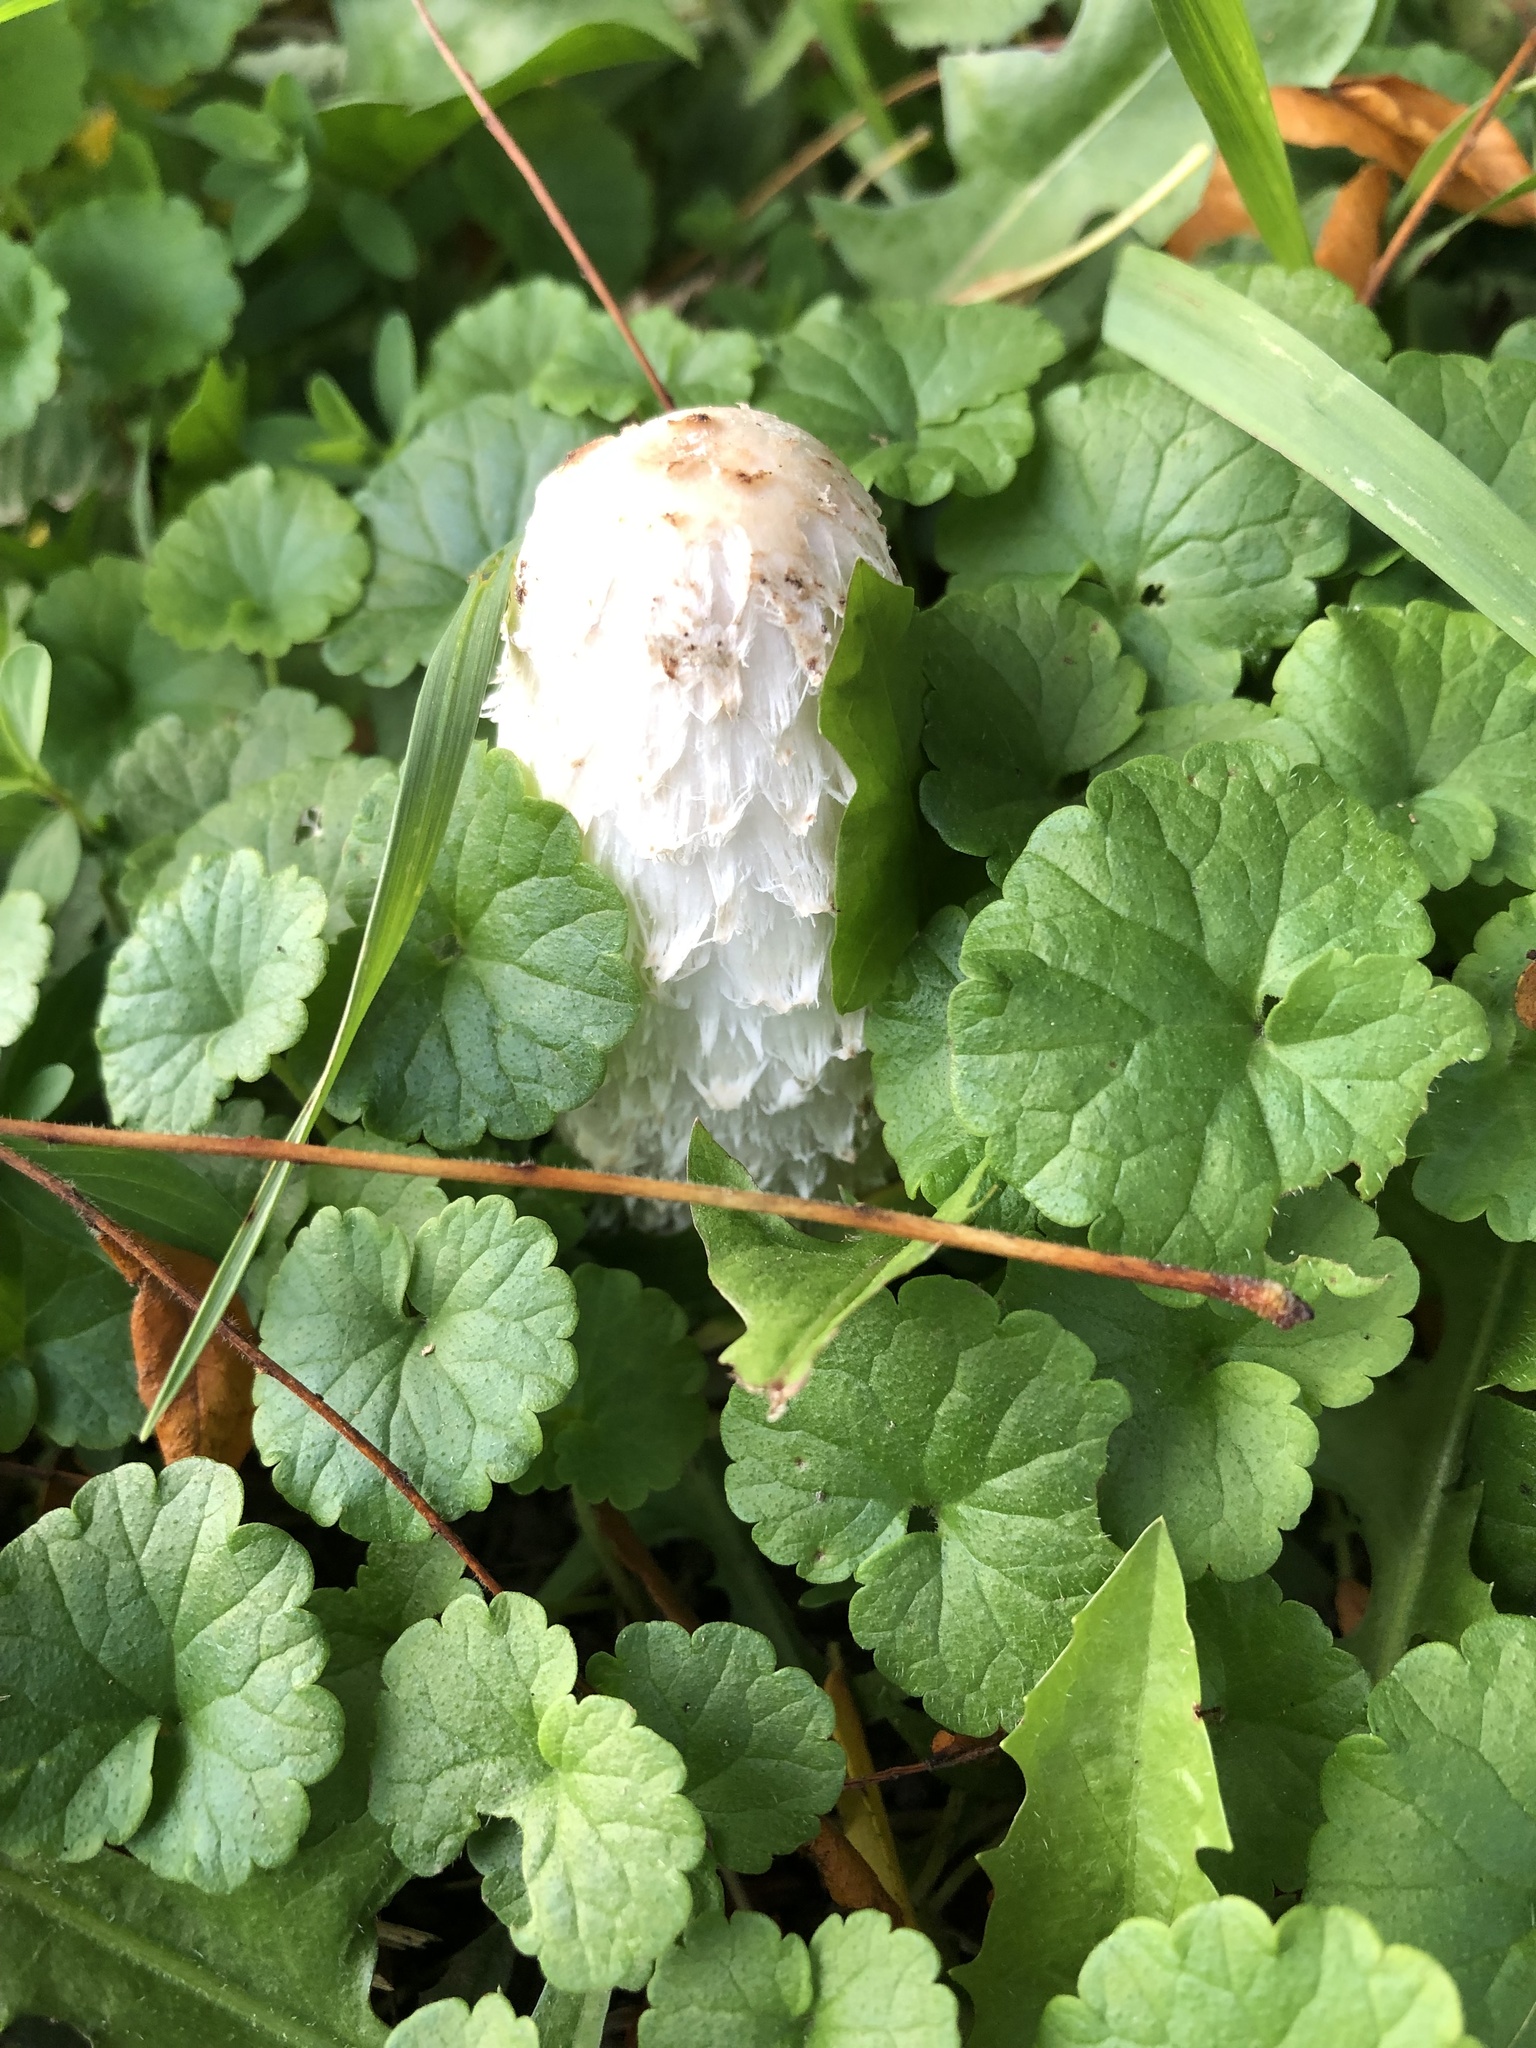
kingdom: Fungi
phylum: Basidiomycota
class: Agaricomycetes
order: Agaricales
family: Agaricaceae
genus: Coprinus
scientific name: Coprinus comatus
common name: Lawyer's wig
